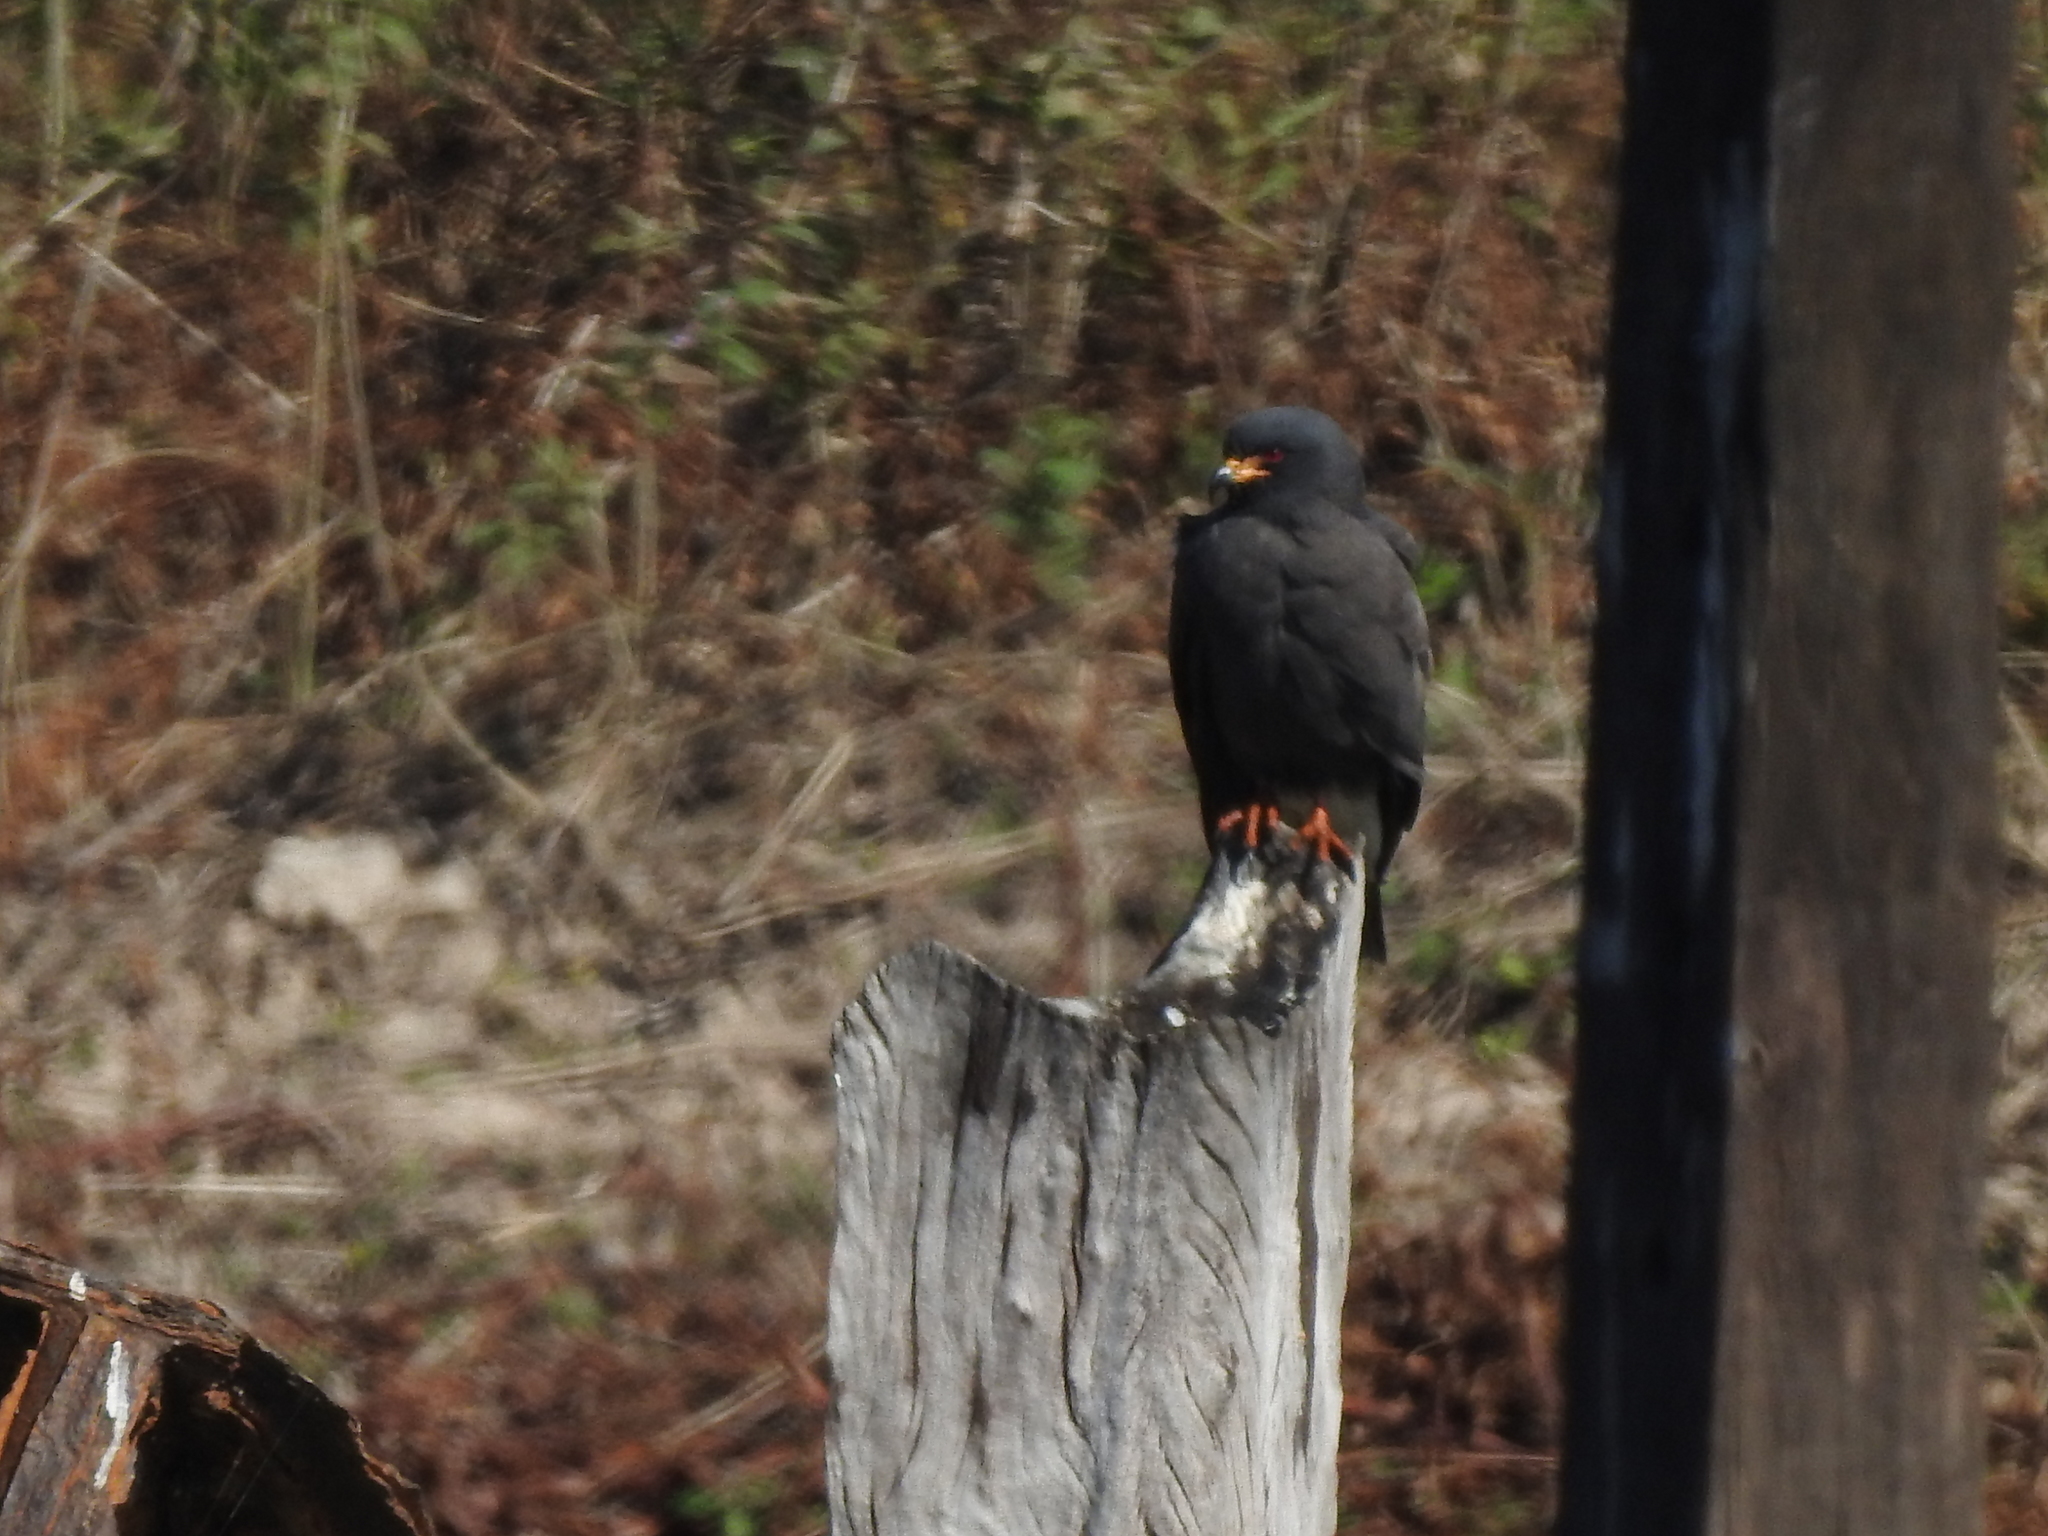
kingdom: Animalia
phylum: Chordata
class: Aves
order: Accipitriformes
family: Accipitridae
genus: Rostrhamus
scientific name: Rostrhamus sociabilis
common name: Snail kite
